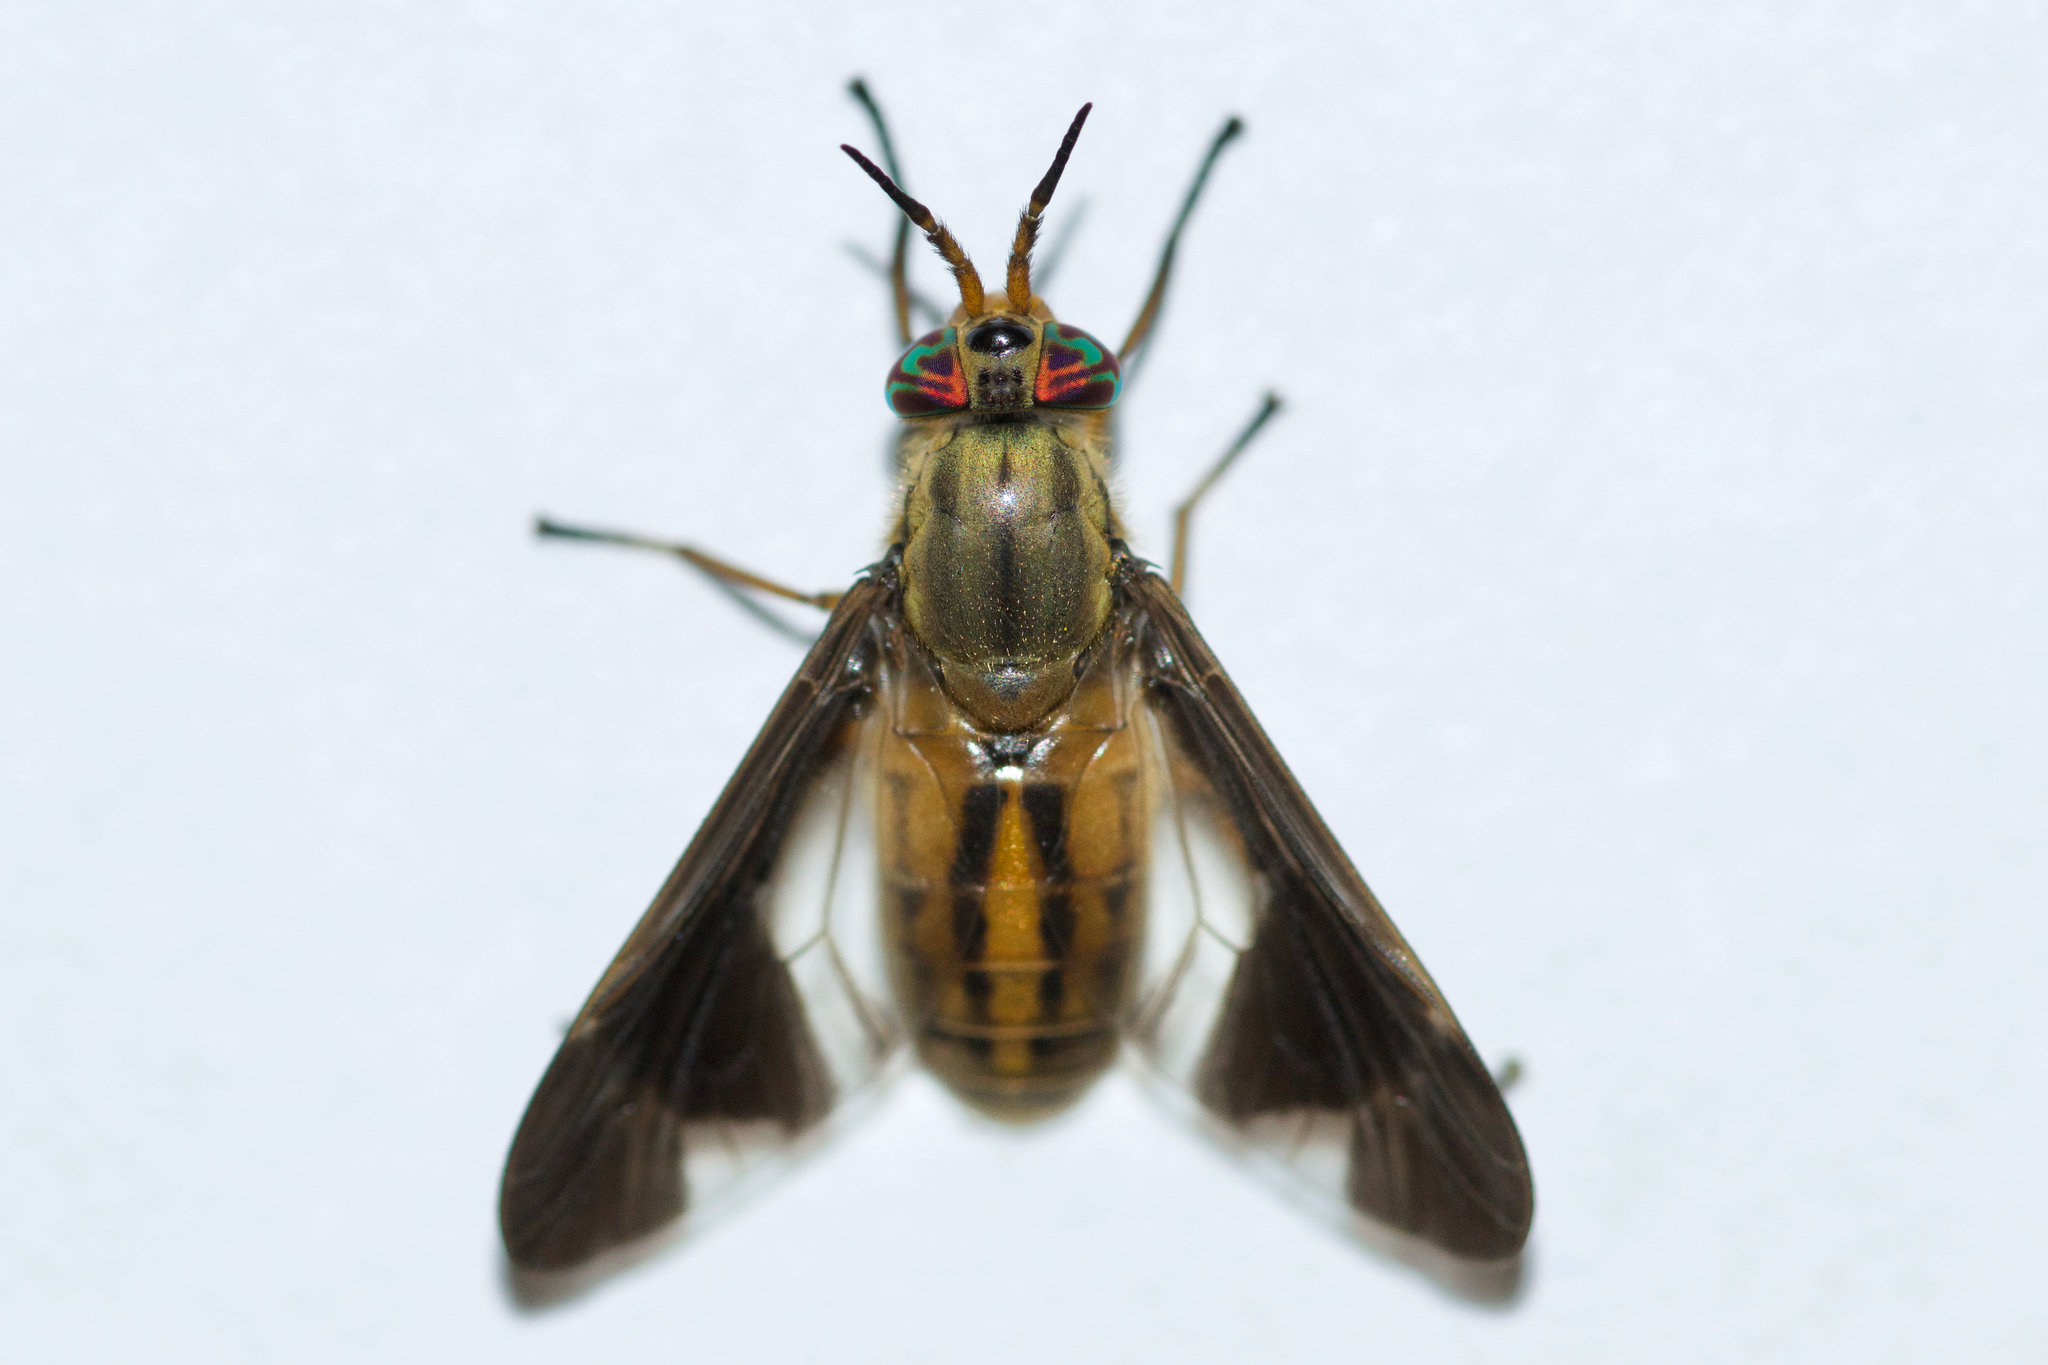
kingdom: Animalia
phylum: Arthropoda
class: Insecta
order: Diptera
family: Tabanidae
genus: Chrysops
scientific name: Chrysops moechus
